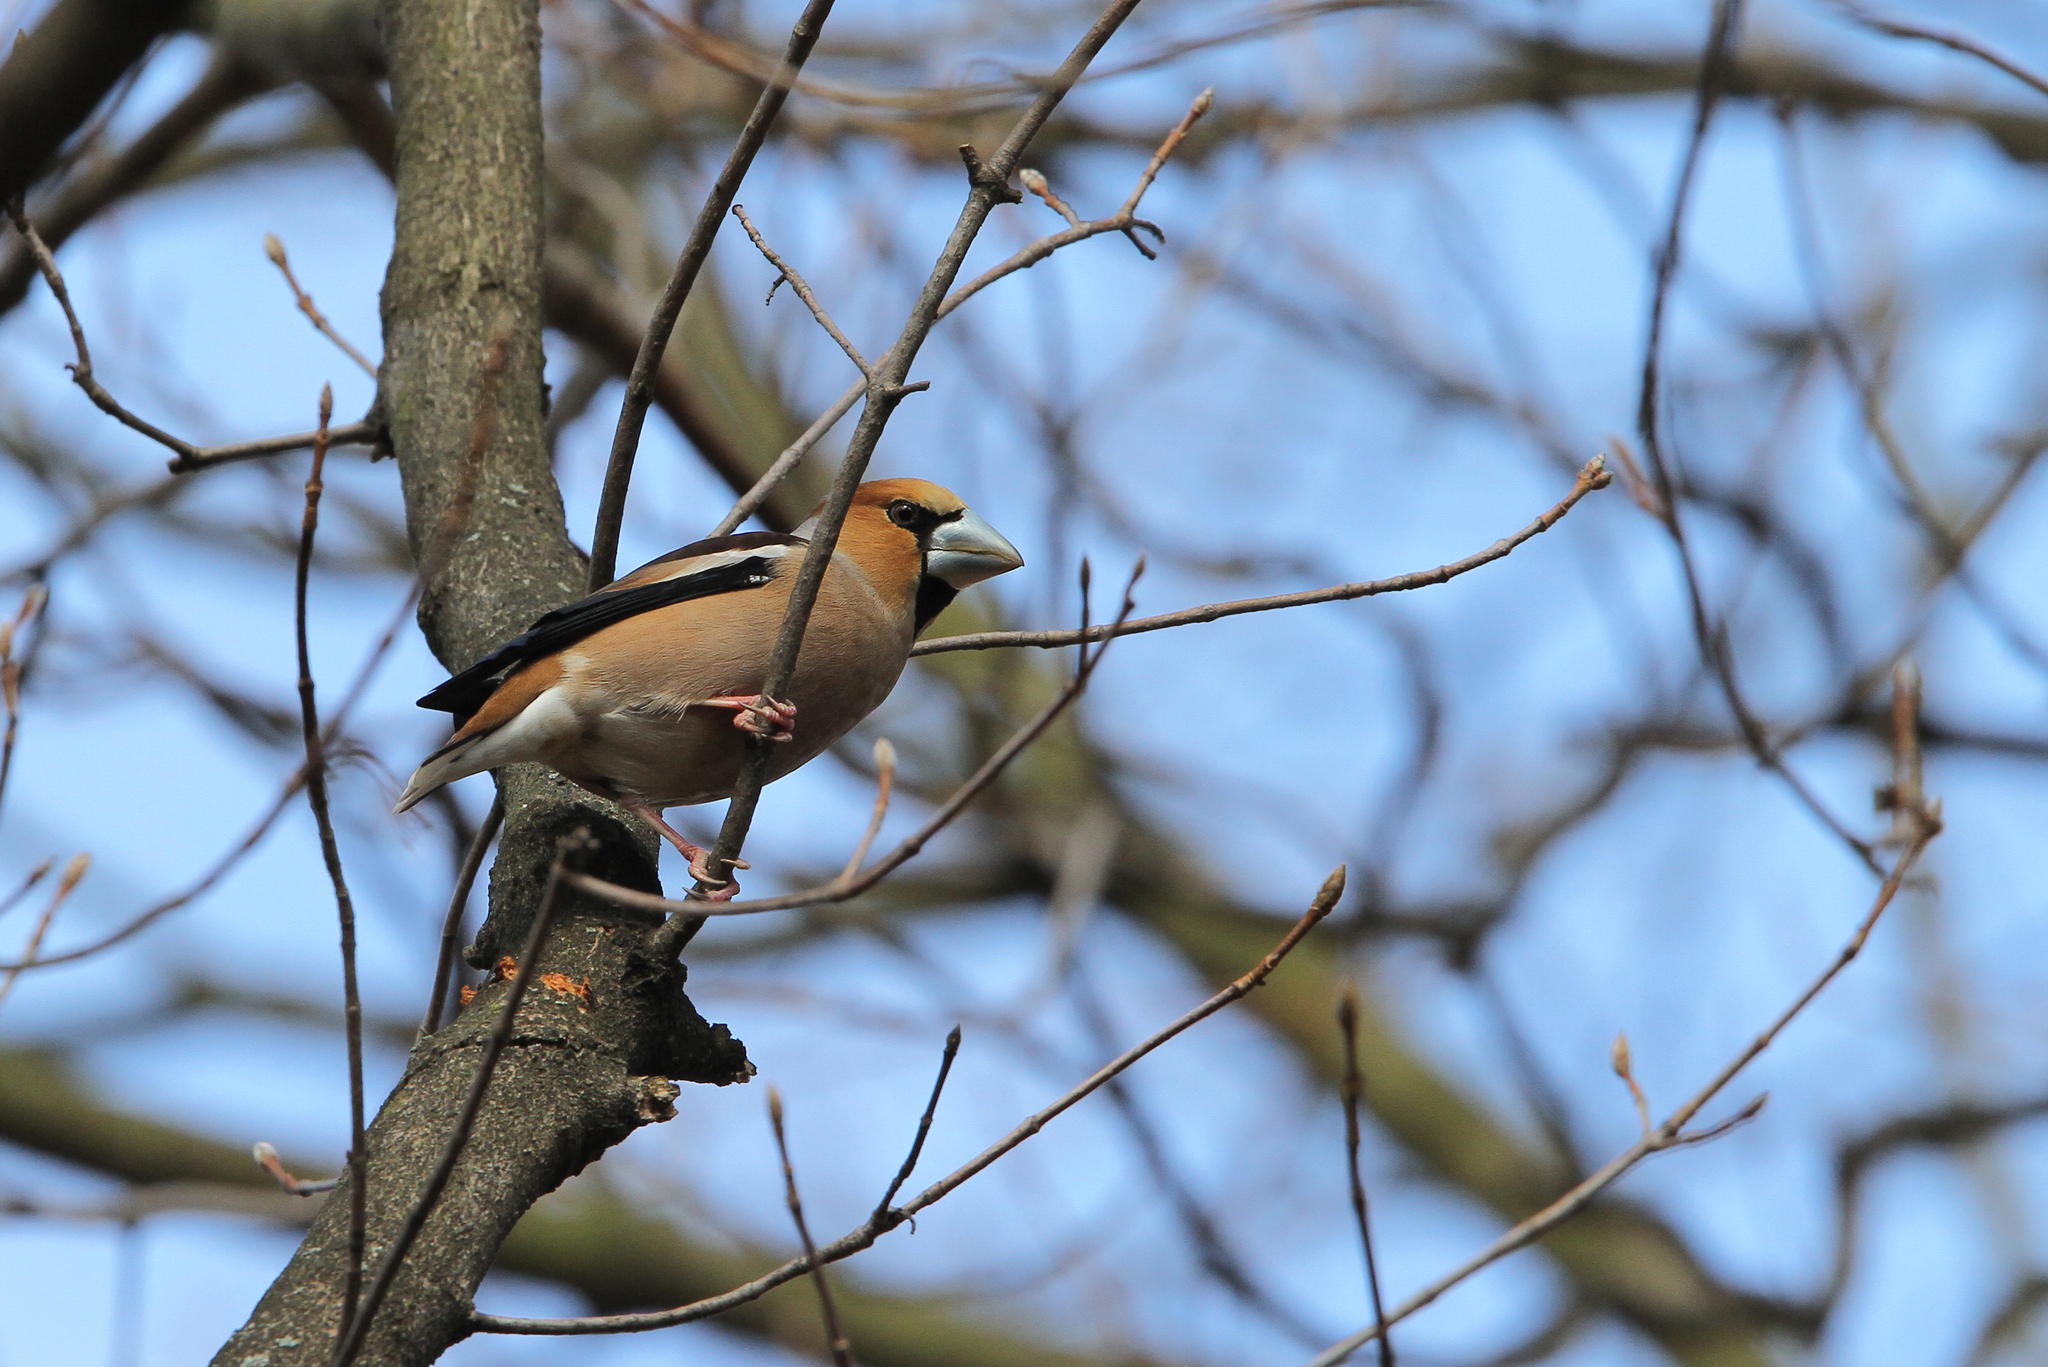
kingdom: Animalia
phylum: Chordata
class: Aves
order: Passeriformes
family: Fringillidae
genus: Coccothraustes
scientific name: Coccothraustes coccothraustes
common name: Hawfinch
